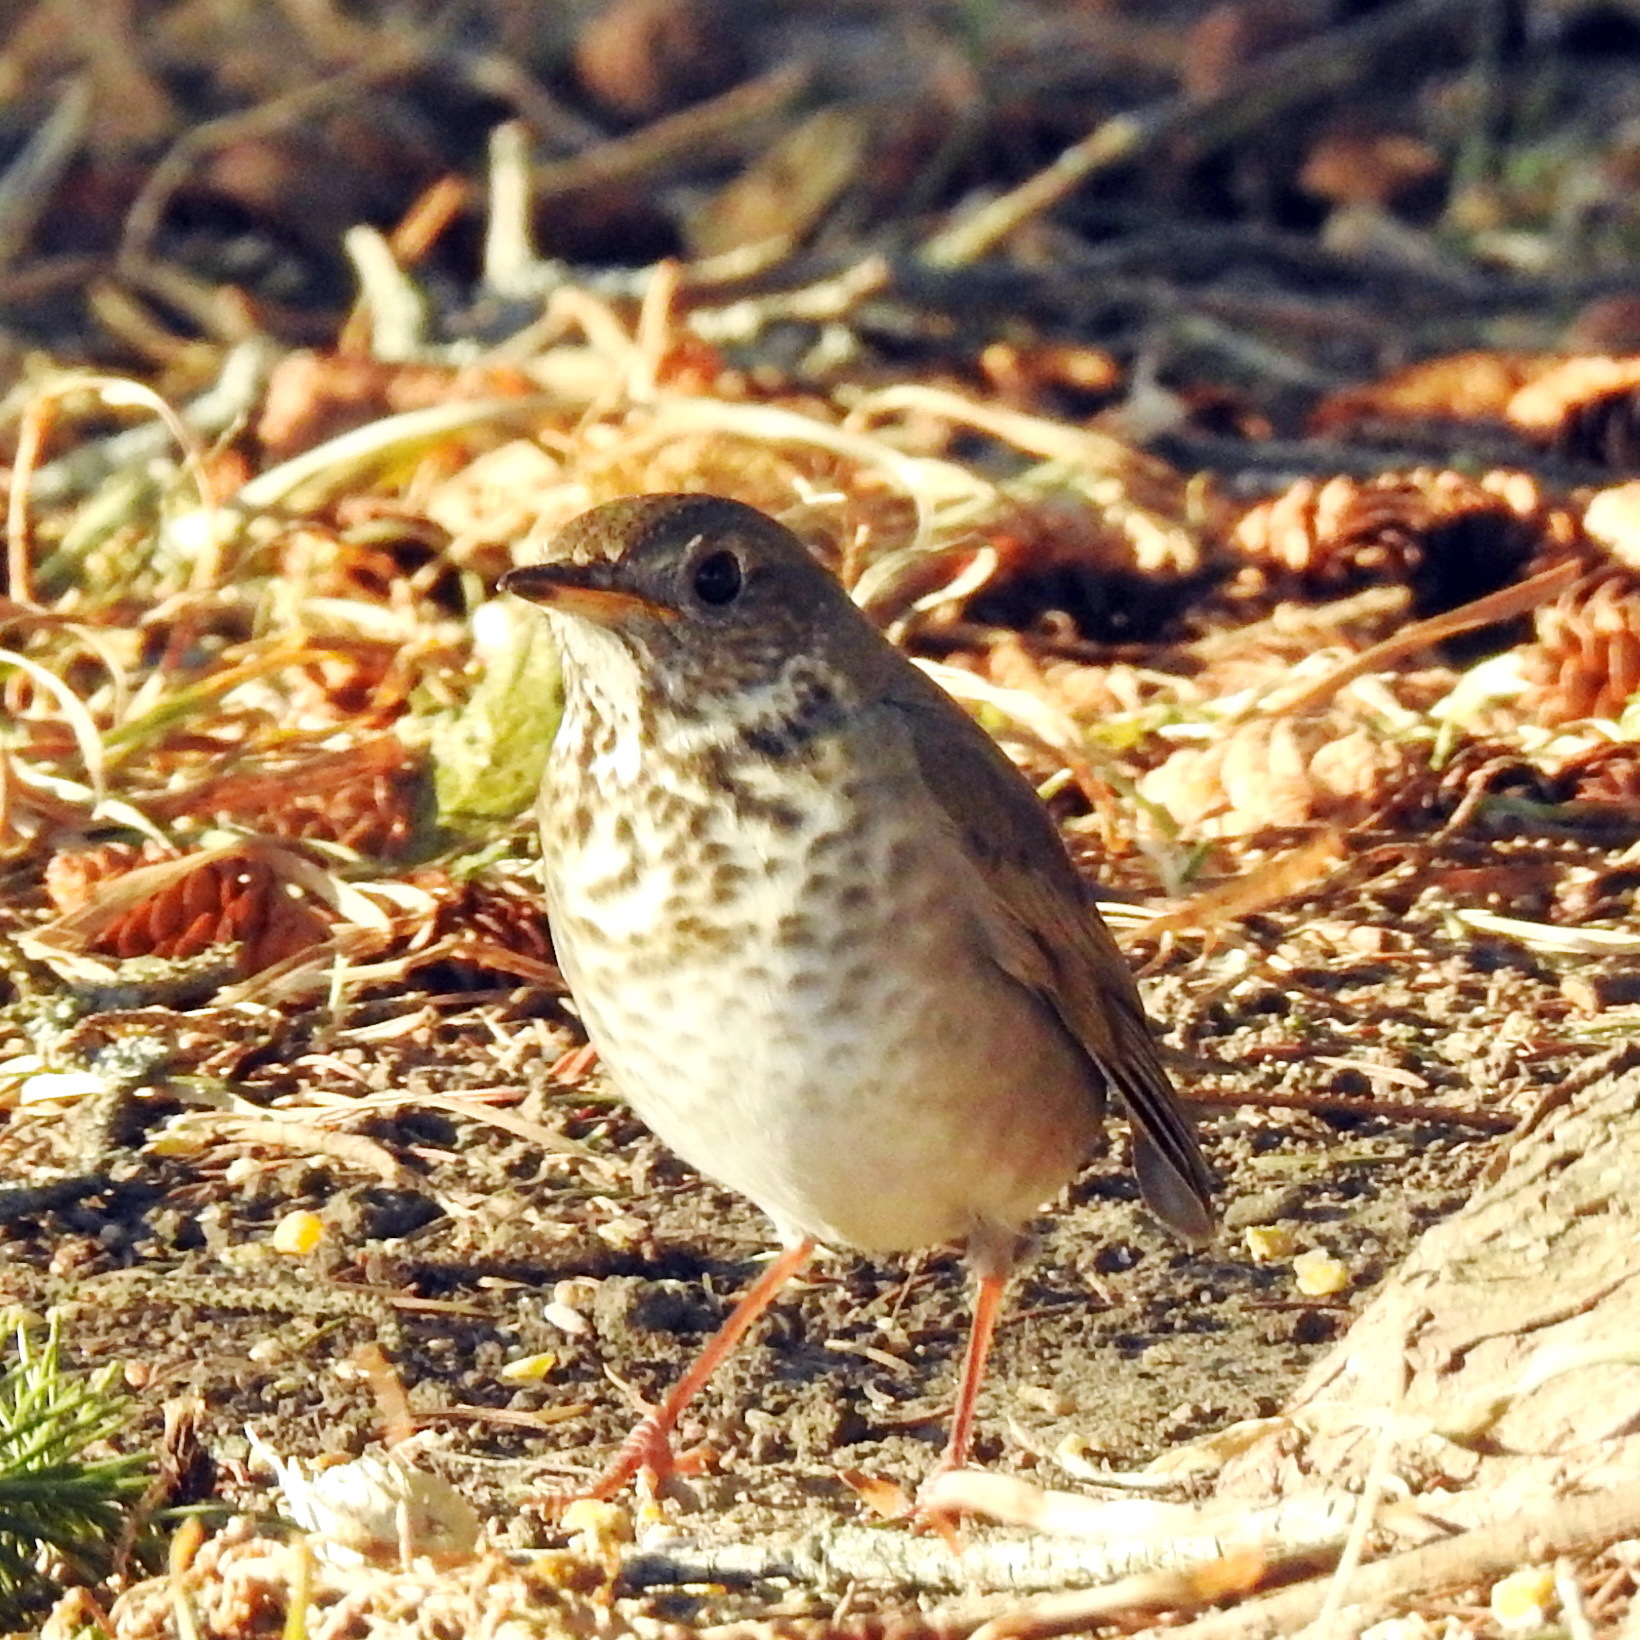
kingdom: Animalia
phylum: Chordata
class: Aves
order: Passeriformes
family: Turdidae
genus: Catharus
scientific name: Catharus minimus
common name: Grey-cheeked thrush
